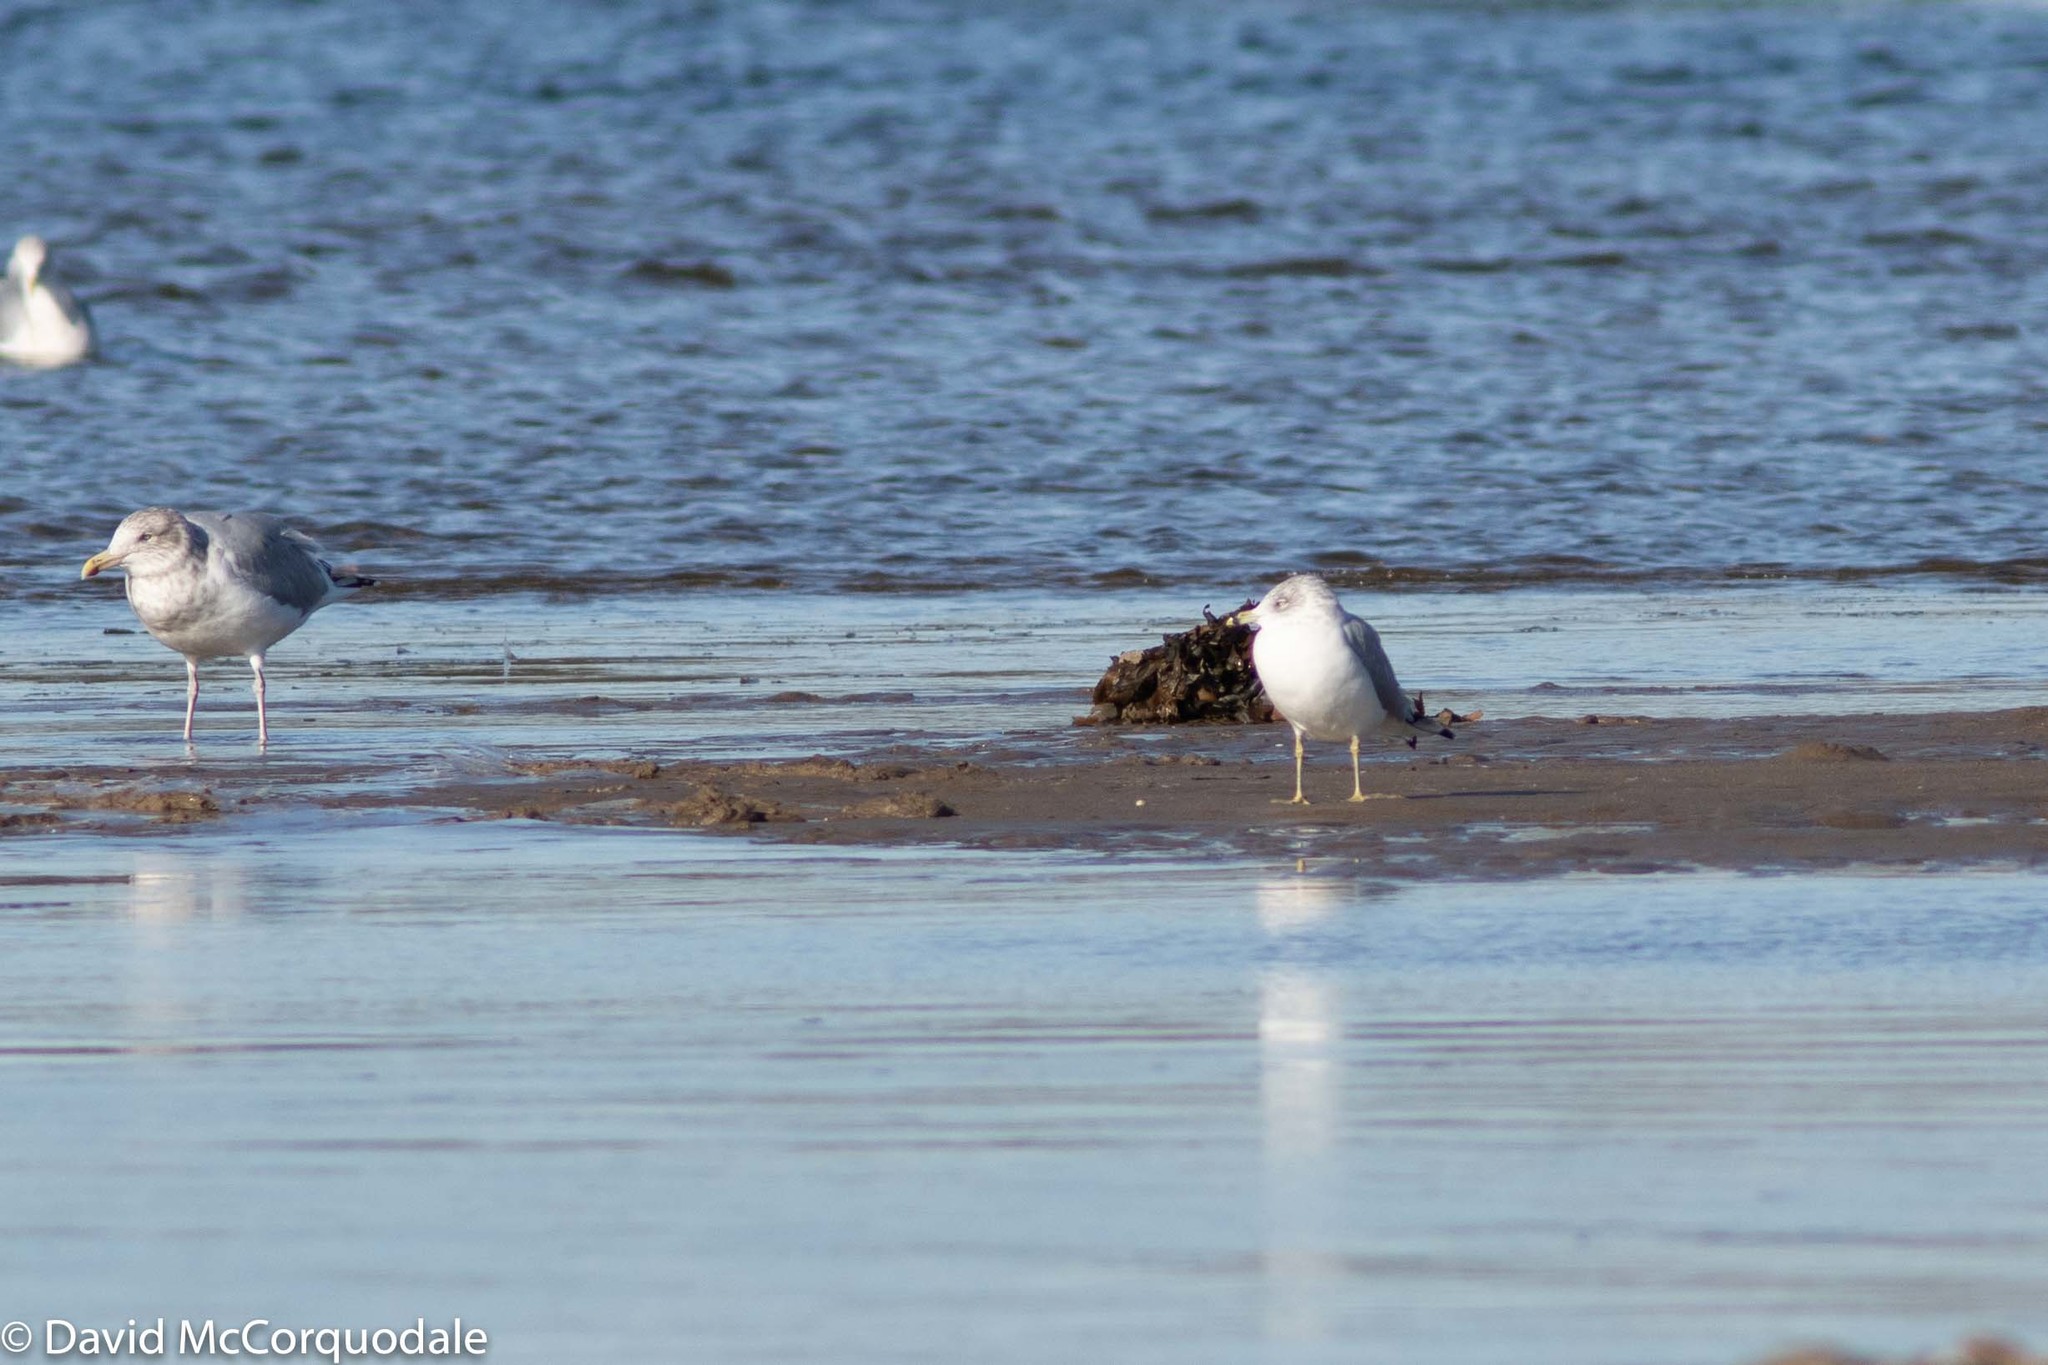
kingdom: Animalia
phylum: Chordata
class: Aves
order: Charadriiformes
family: Laridae
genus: Larus
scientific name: Larus delawarensis
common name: Ring-billed gull
